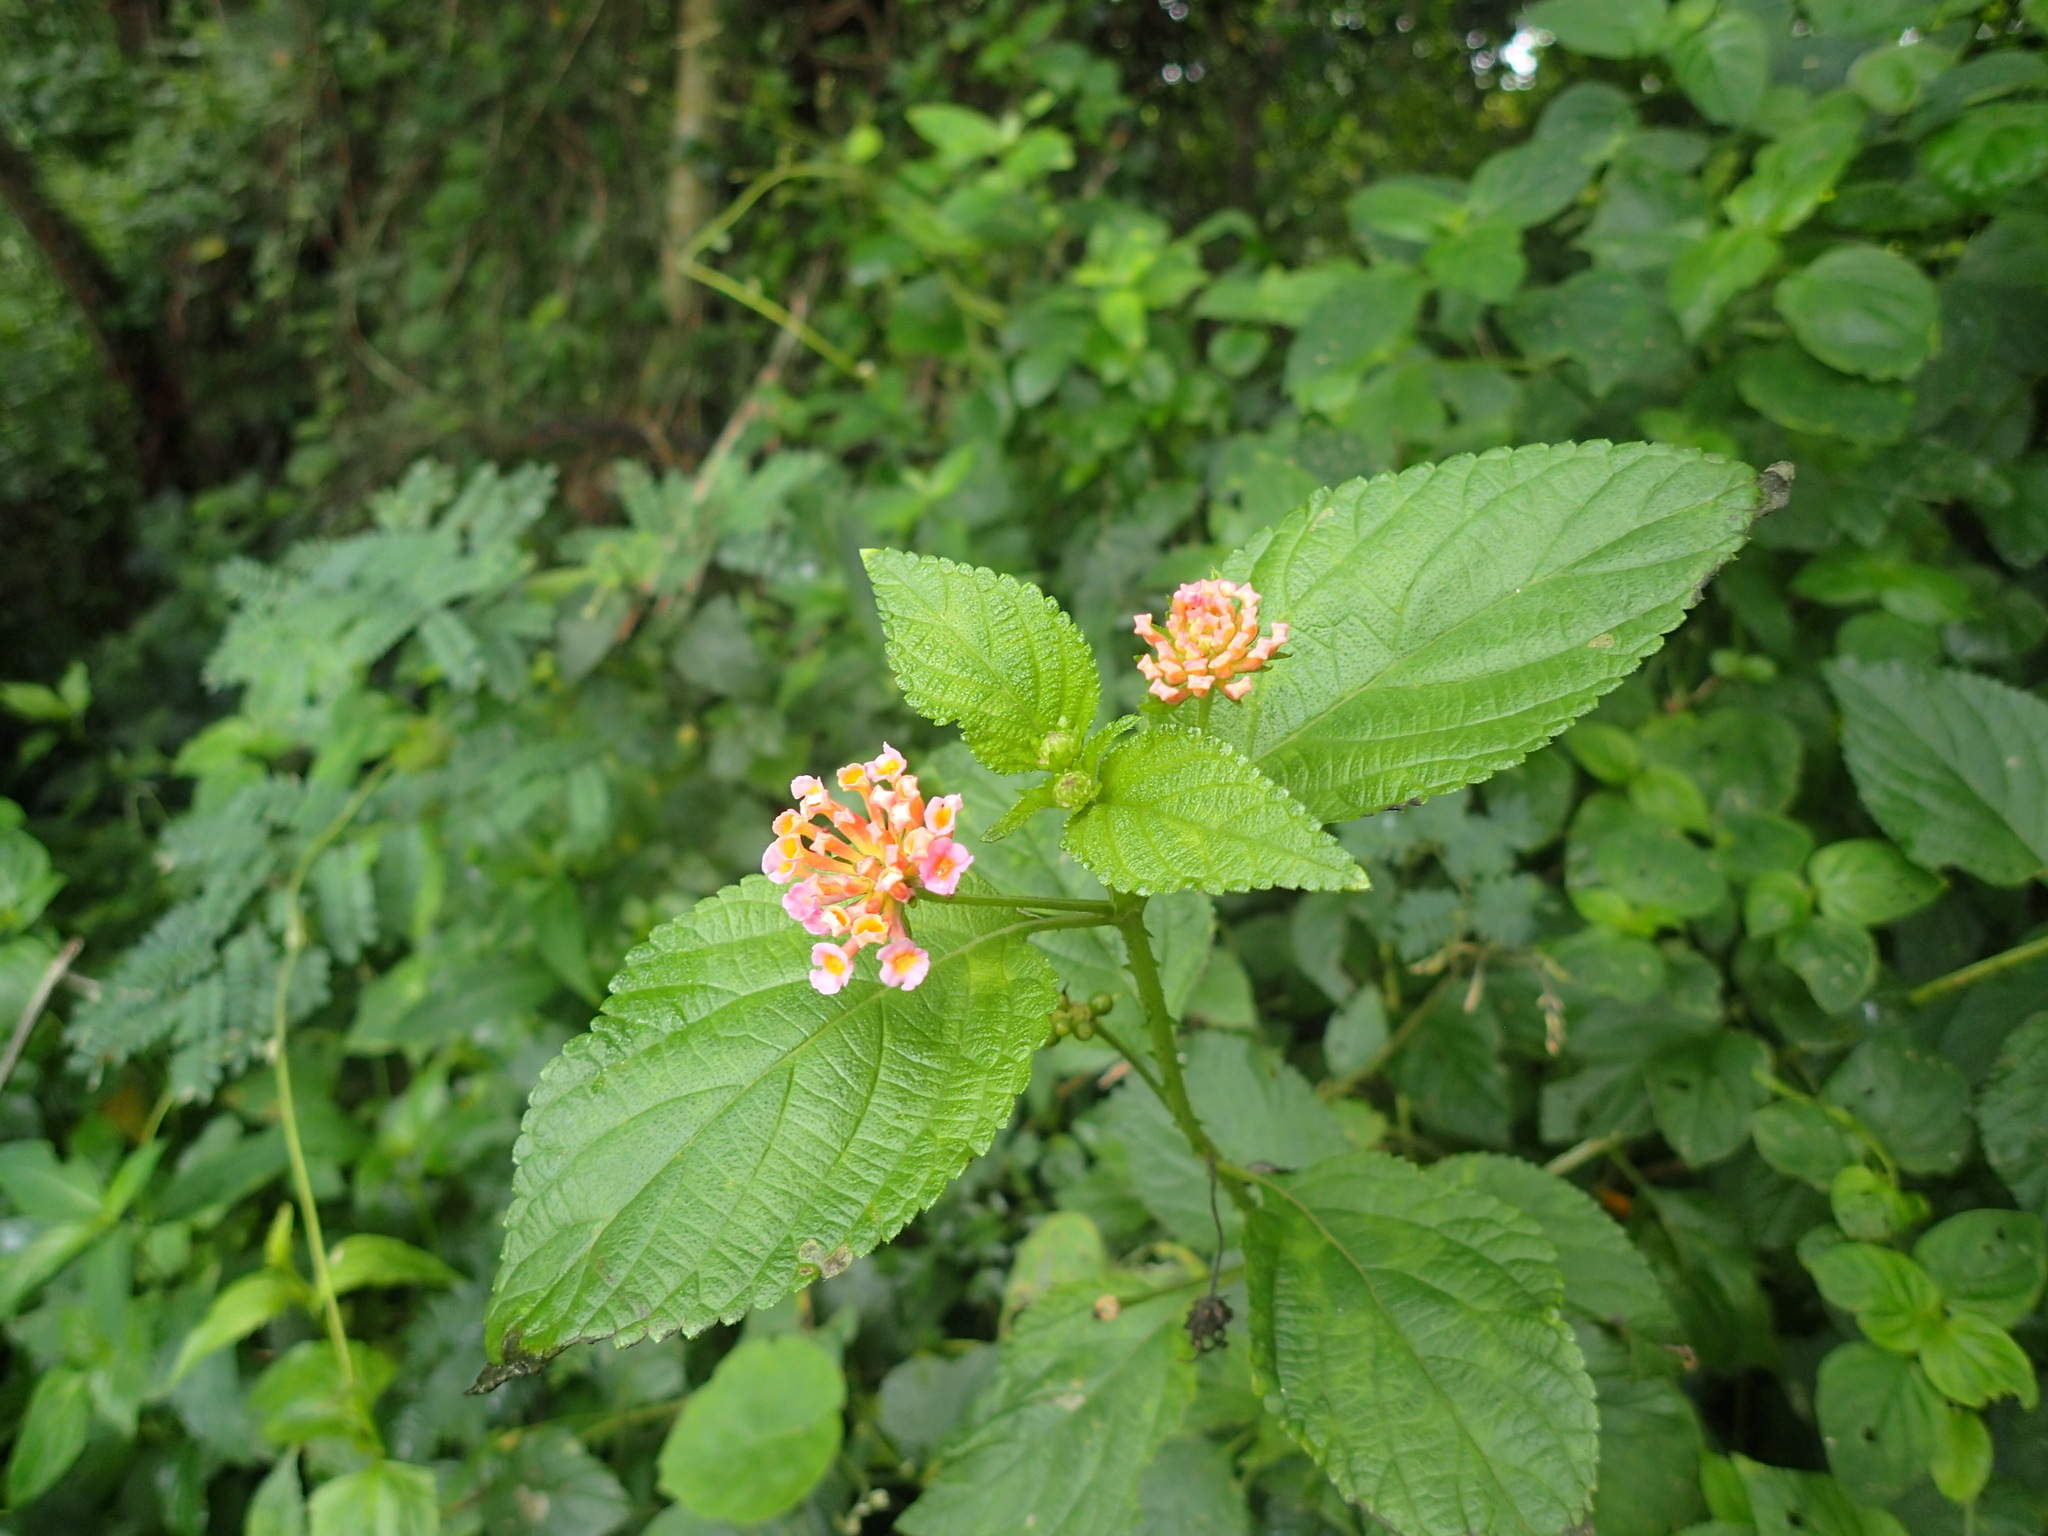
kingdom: Plantae
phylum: Tracheophyta
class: Magnoliopsida
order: Lamiales
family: Verbenaceae
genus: Lantana
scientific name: Lantana camara
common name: Lantana
